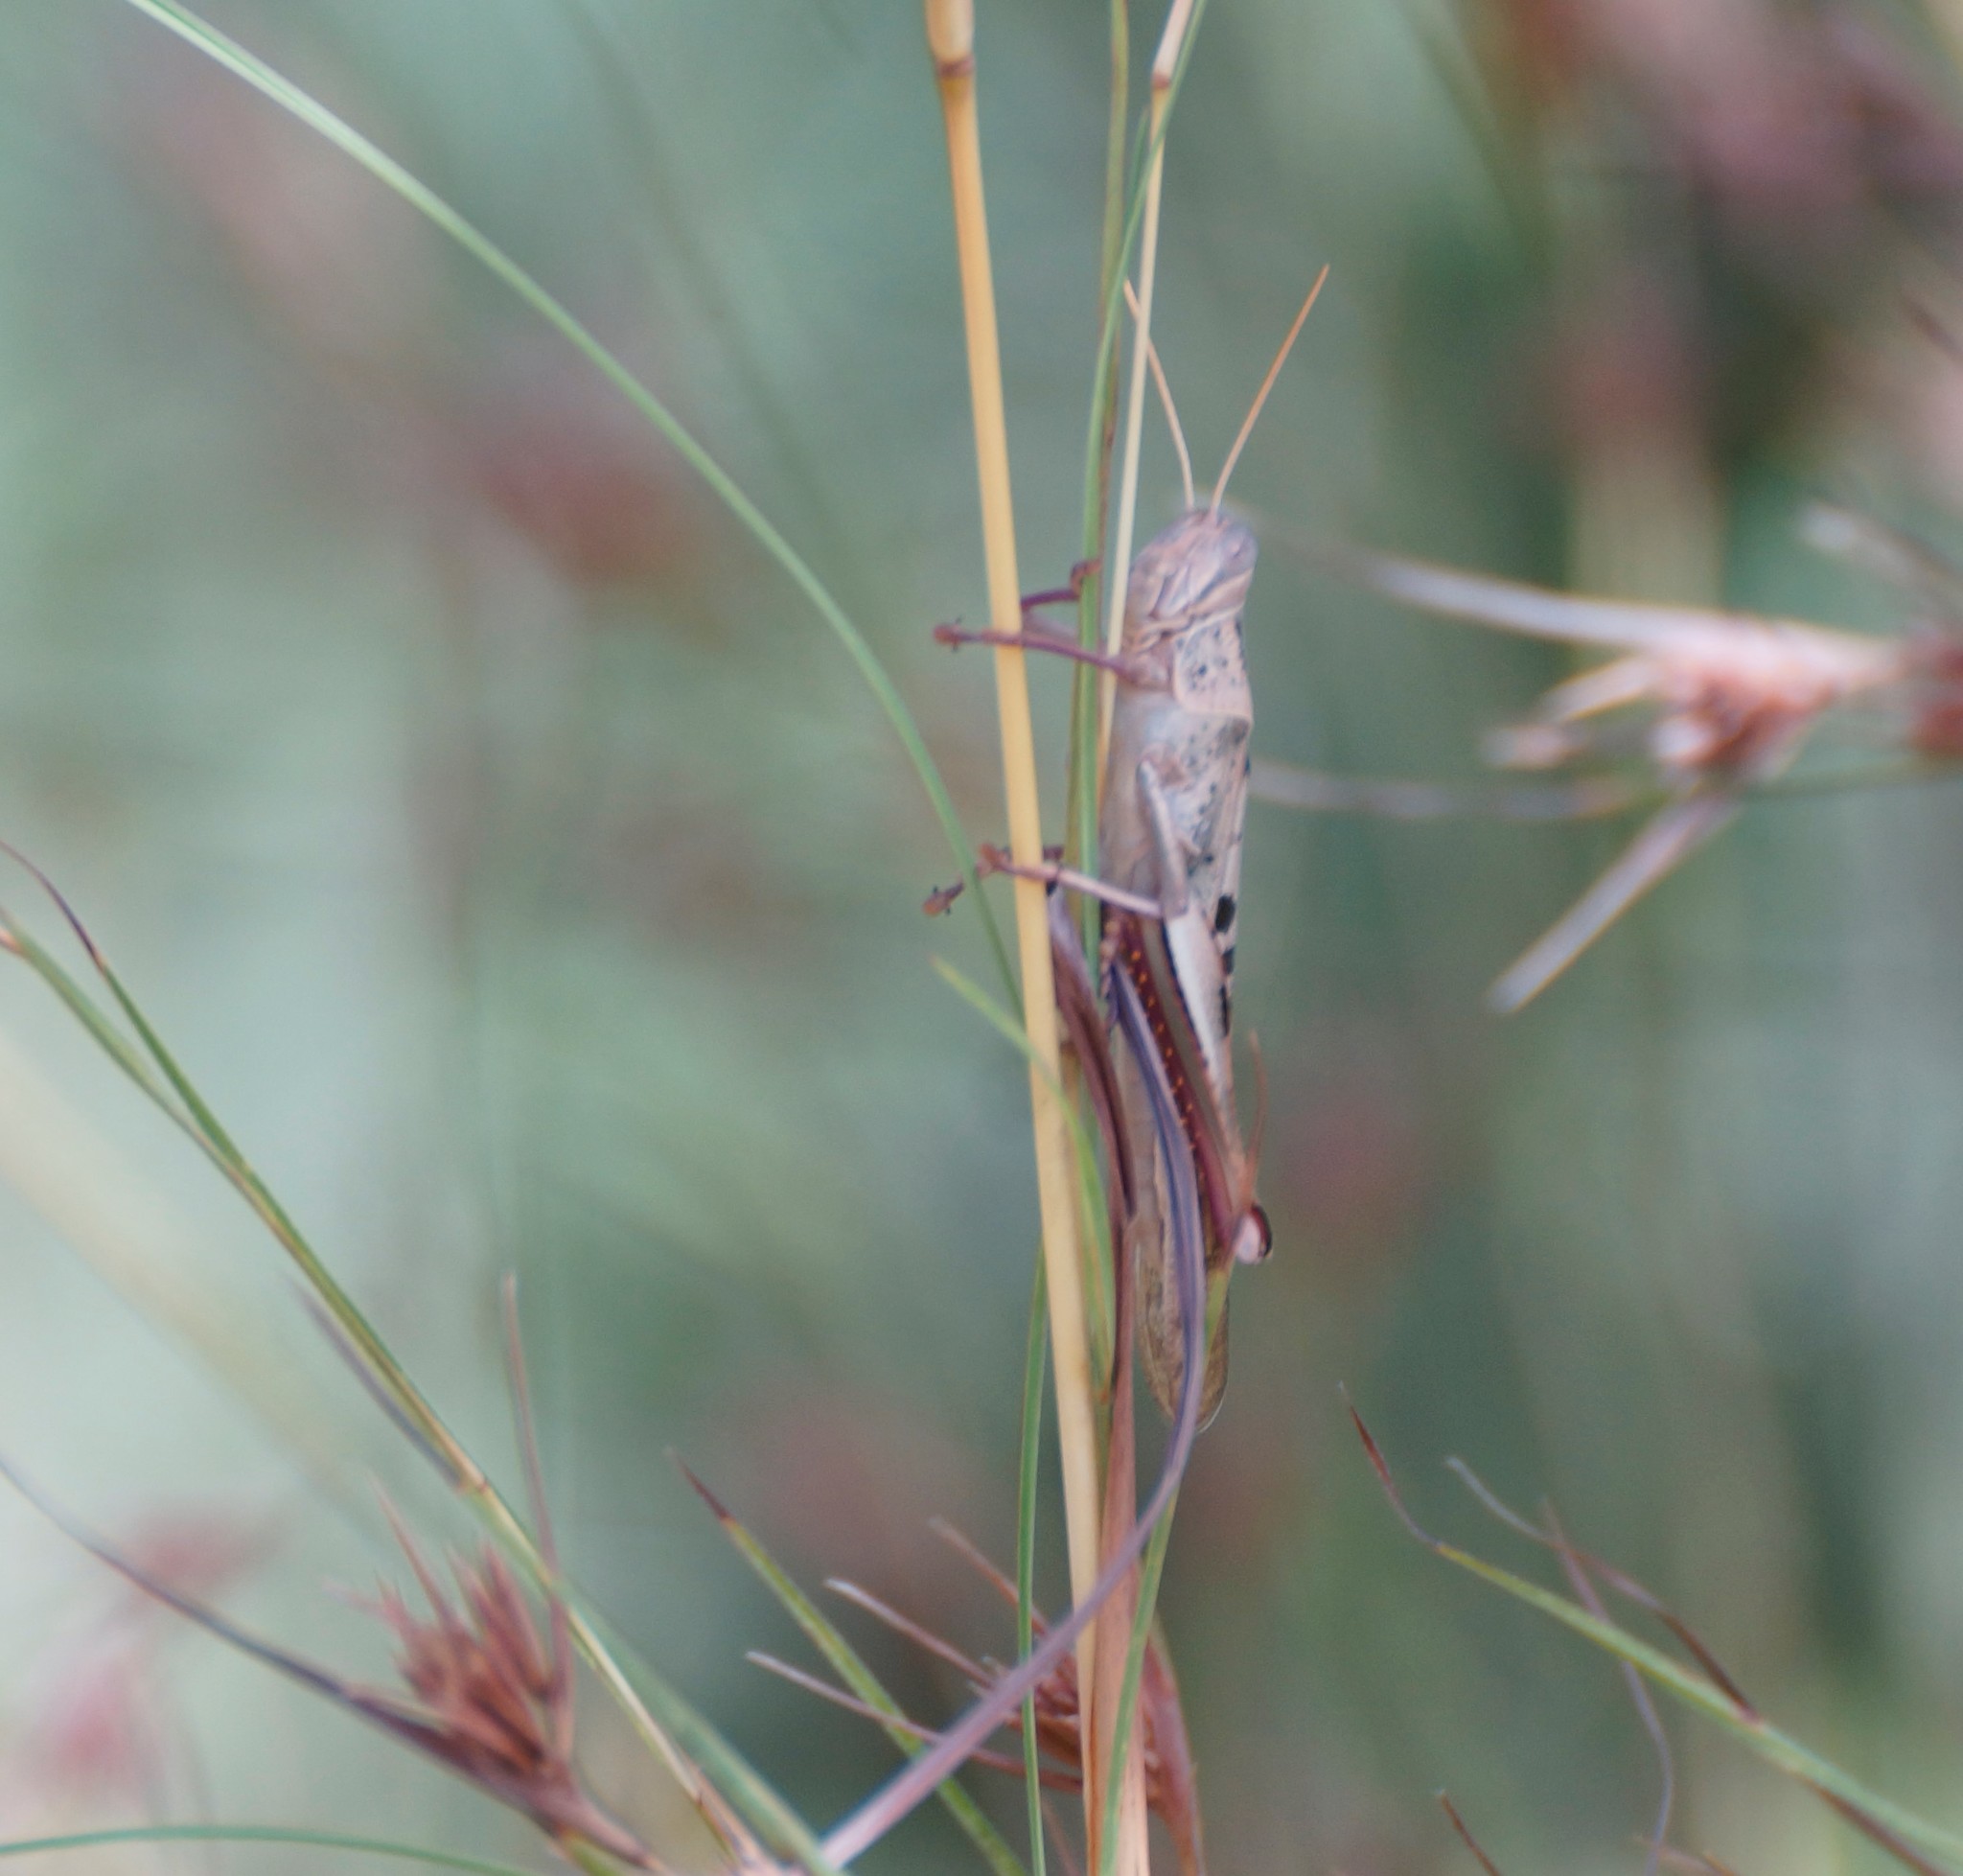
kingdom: Animalia
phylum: Arthropoda
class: Insecta
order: Orthoptera
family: Acrididae
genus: Austracris
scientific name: Austracris basalis
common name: Spotted spur-throated locust
